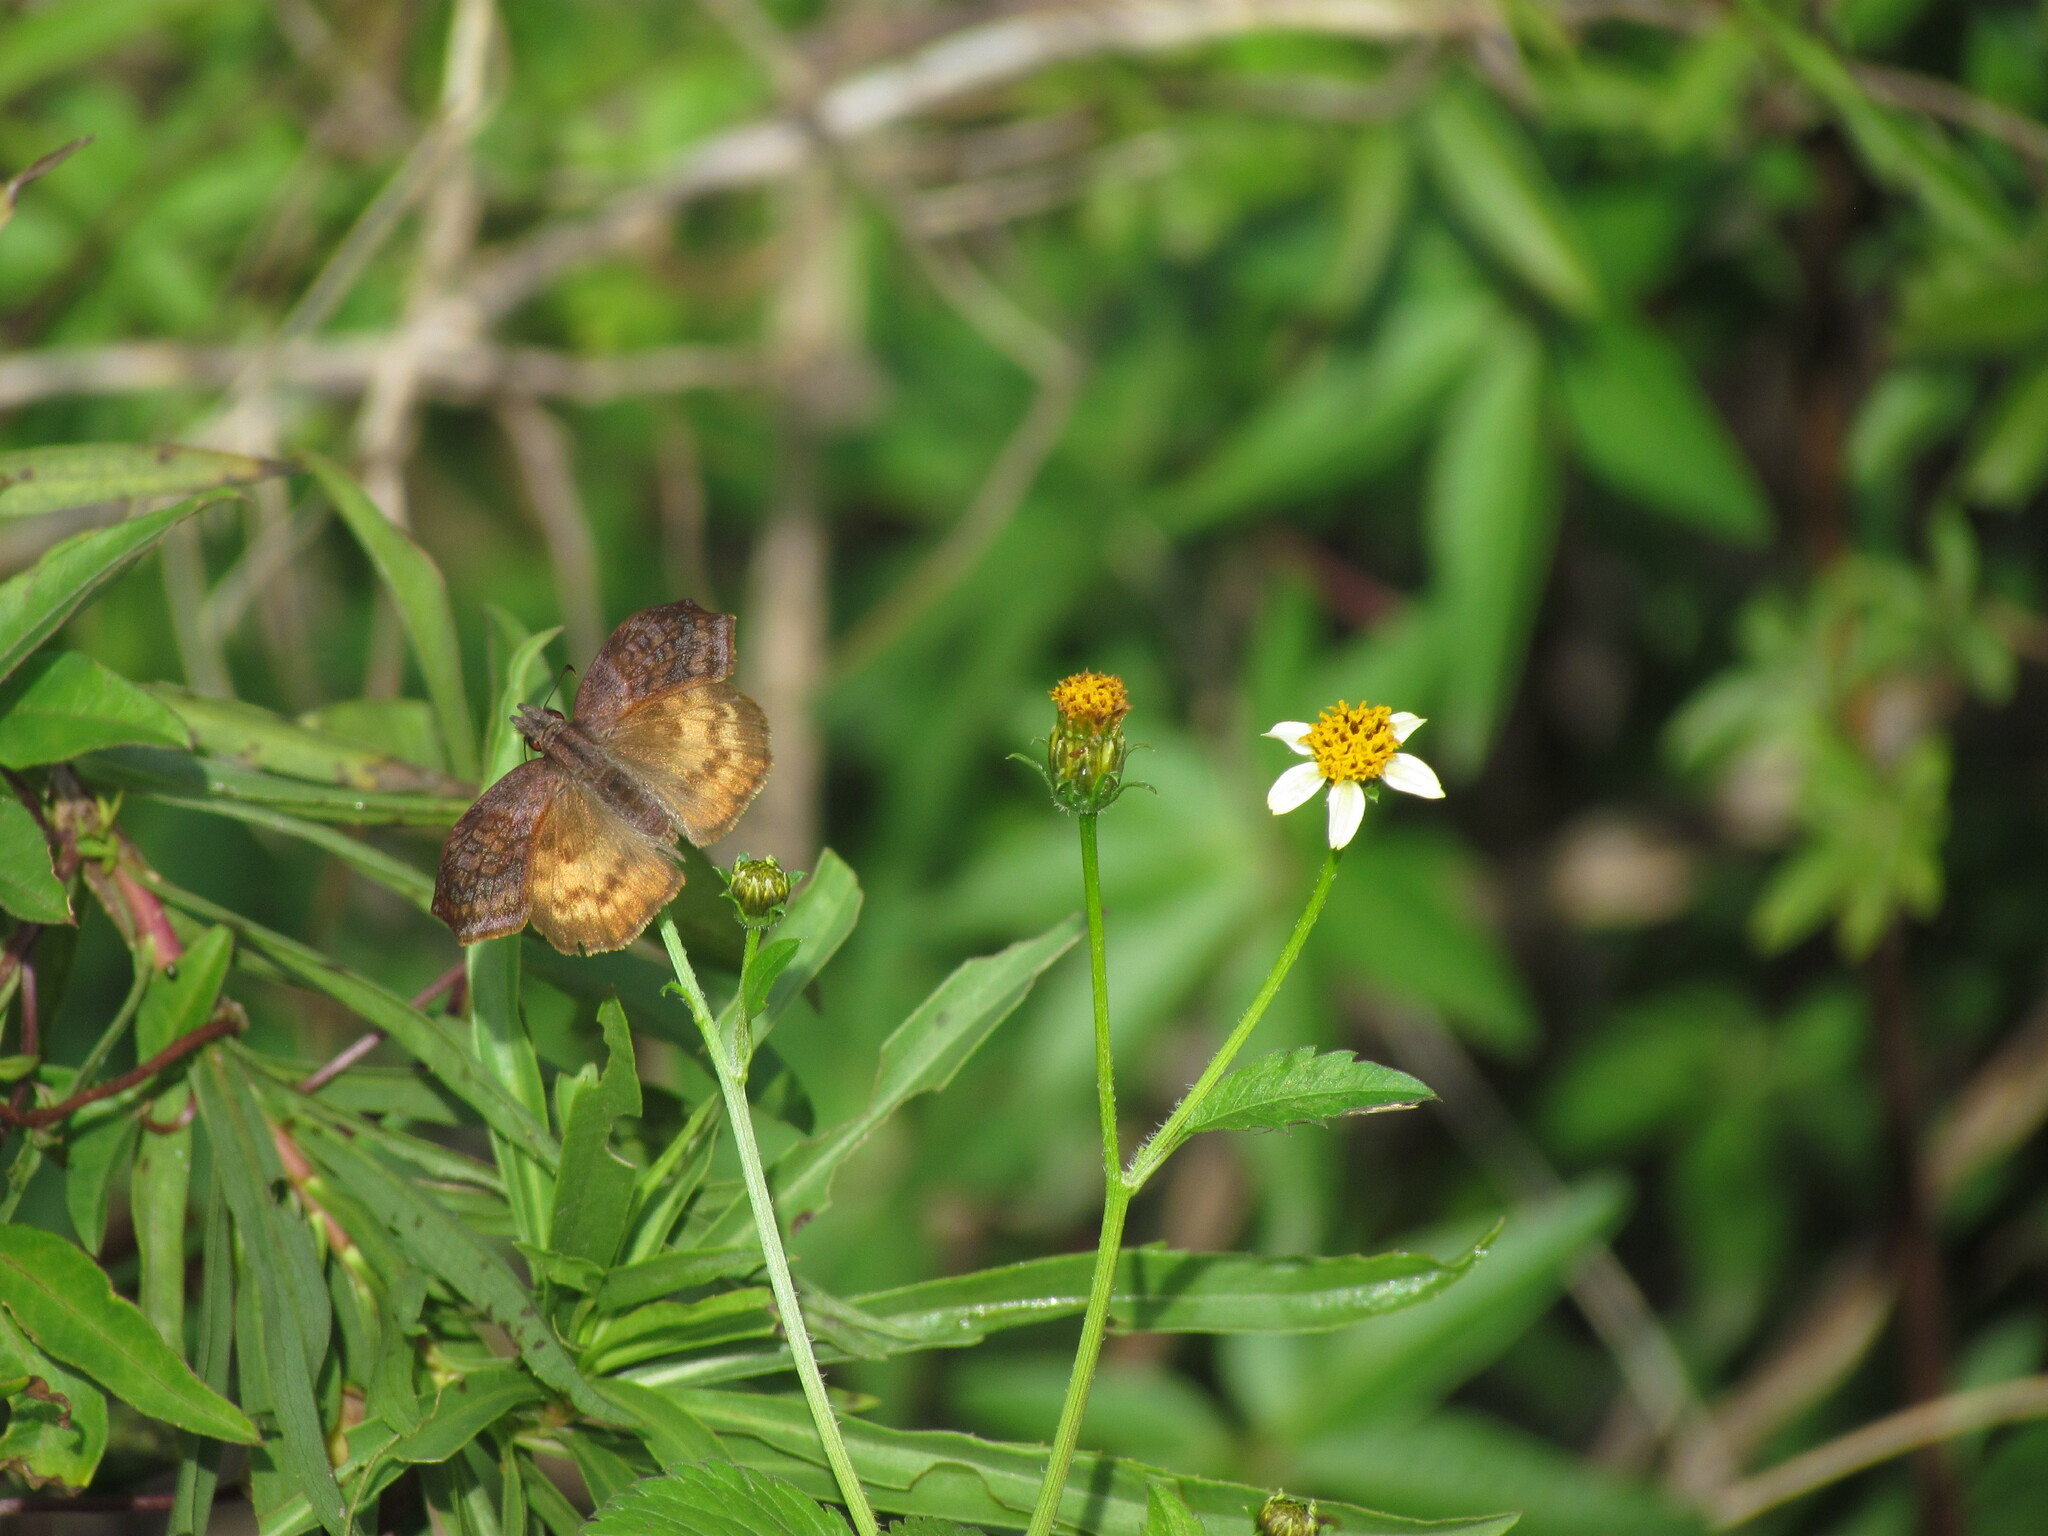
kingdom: Animalia
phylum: Arthropoda
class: Insecta
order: Lepidoptera
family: Hesperiidae
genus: Theagenes
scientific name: Theagenes dichrous
